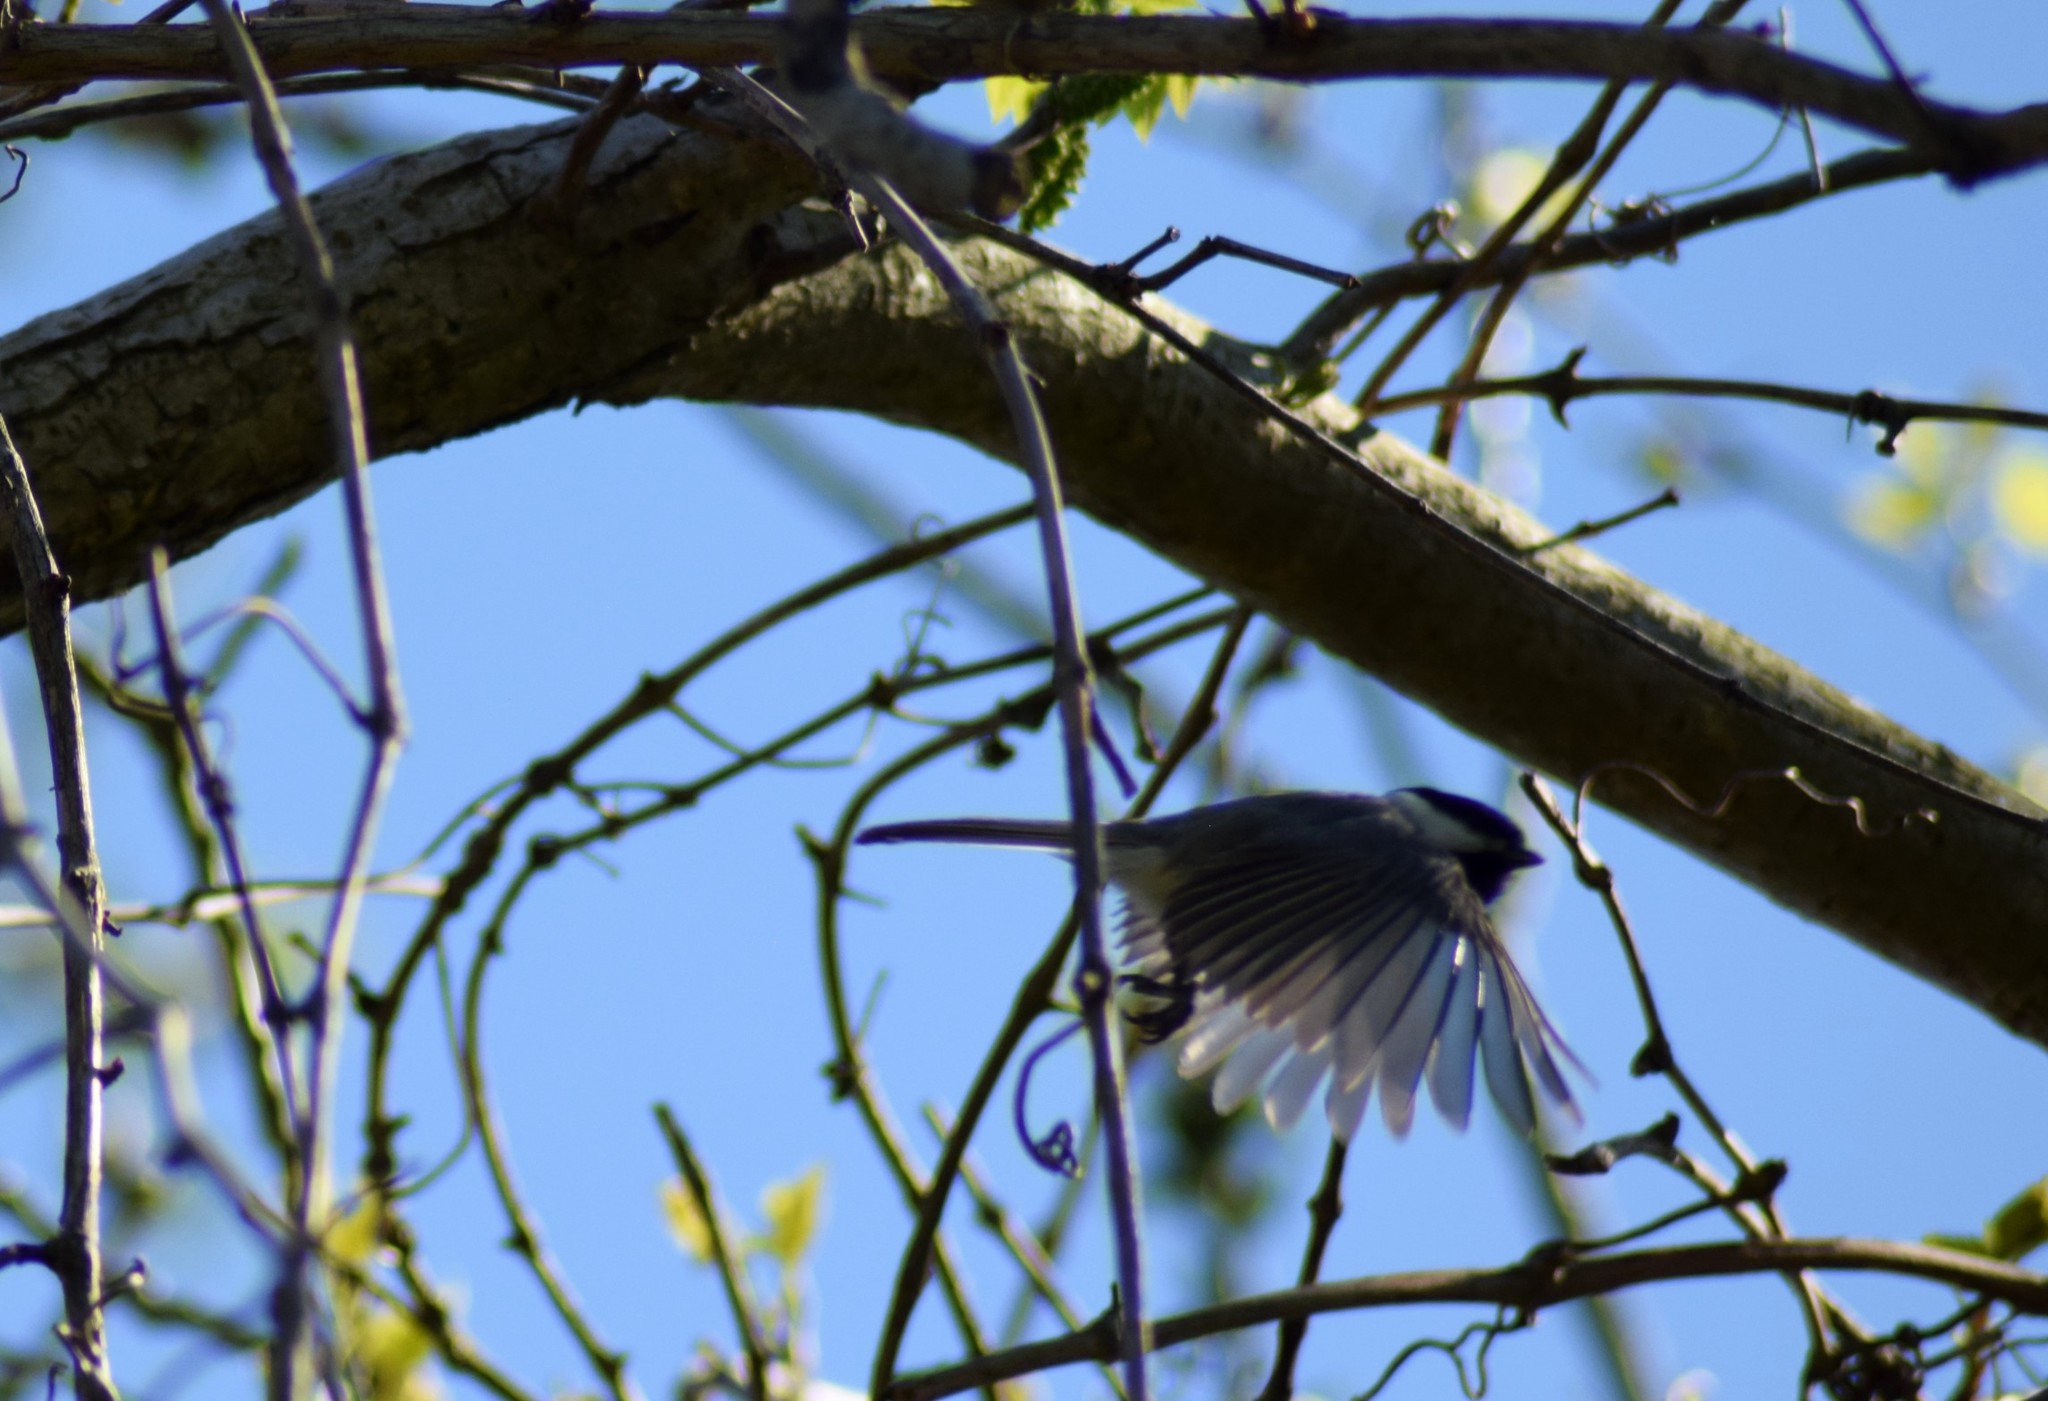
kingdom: Animalia
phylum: Chordata
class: Aves
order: Passeriformes
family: Paridae
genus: Poecile
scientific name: Poecile carolinensis
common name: Carolina chickadee
